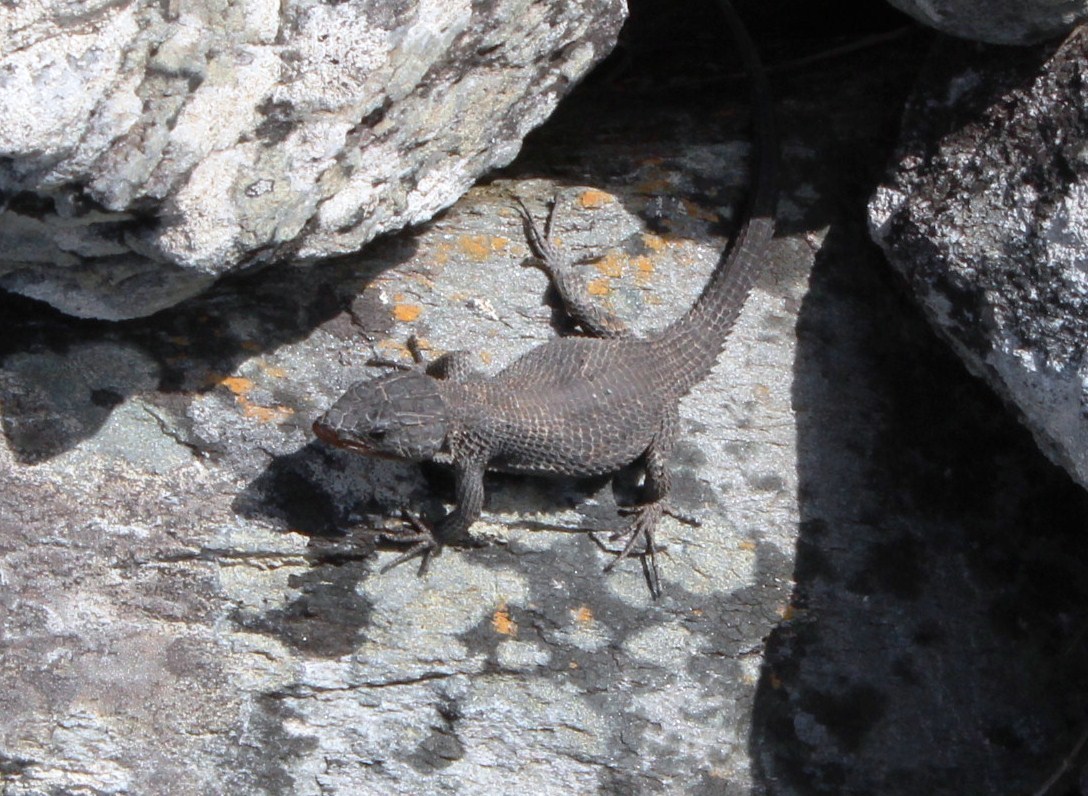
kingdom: Animalia
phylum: Chordata
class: Squamata
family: Cordylidae
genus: Ninurta
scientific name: Ninurta coeruleopunctatus
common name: Blue-spotted girdled lizard
